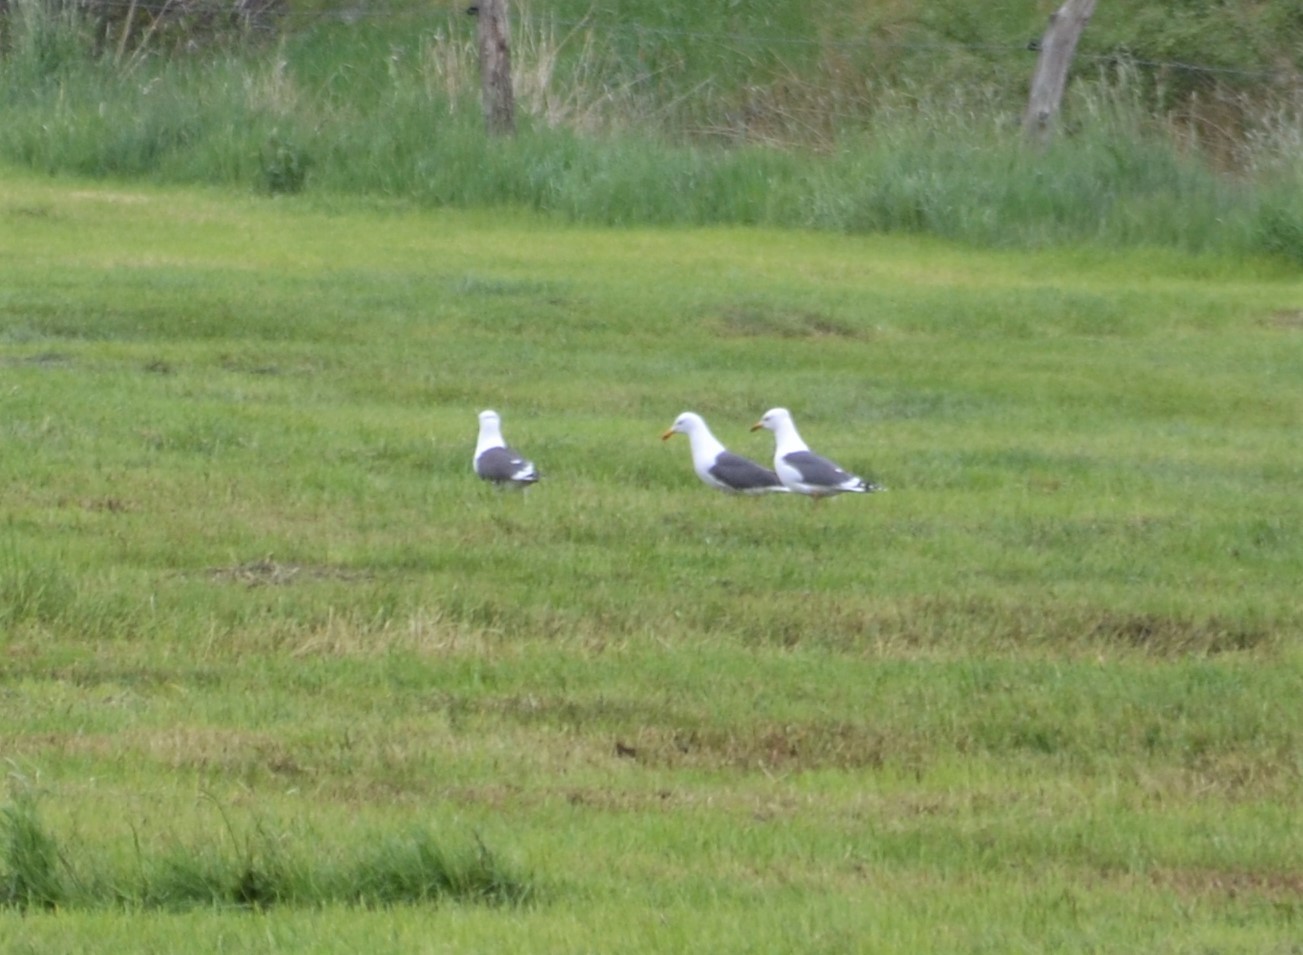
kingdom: Animalia
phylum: Chordata
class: Aves
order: Charadriiformes
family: Laridae
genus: Larus
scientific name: Larus fuscus
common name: Lesser black-backed gull
